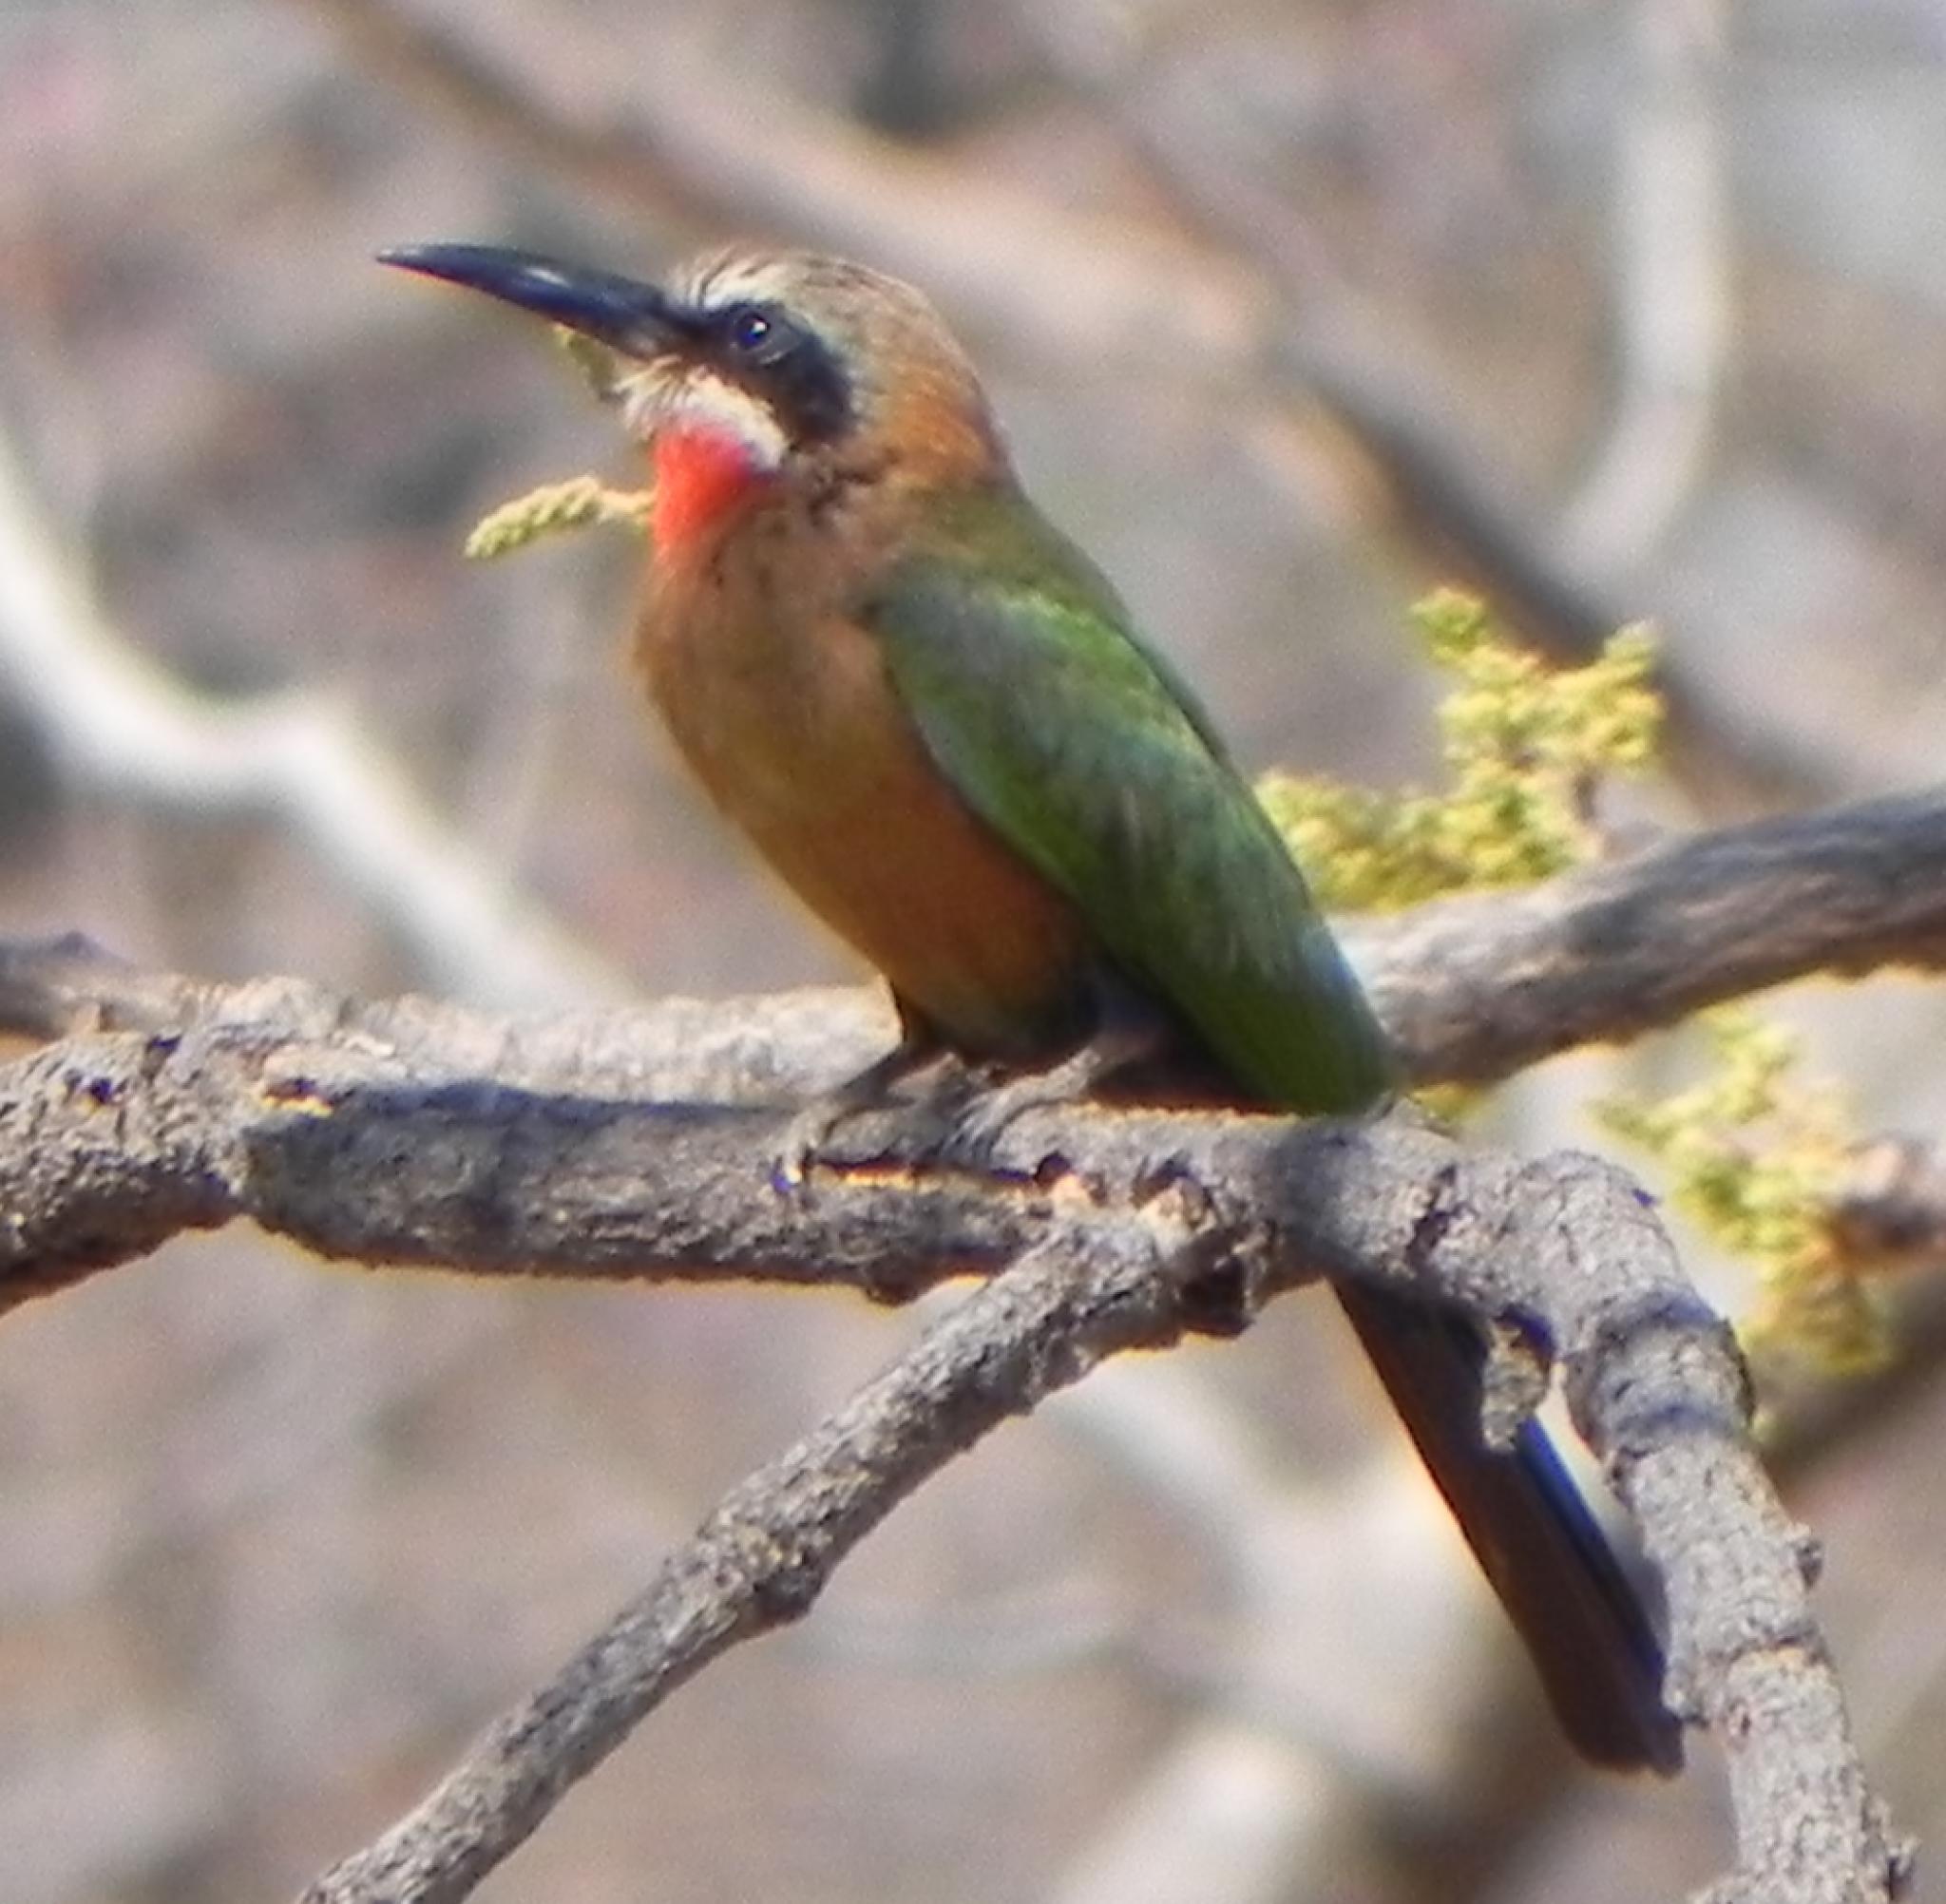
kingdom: Animalia
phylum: Chordata
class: Aves
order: Coraciiformes
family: Meropidae
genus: Merops
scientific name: Merops bullockoides
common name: White-fronted bee-eater
